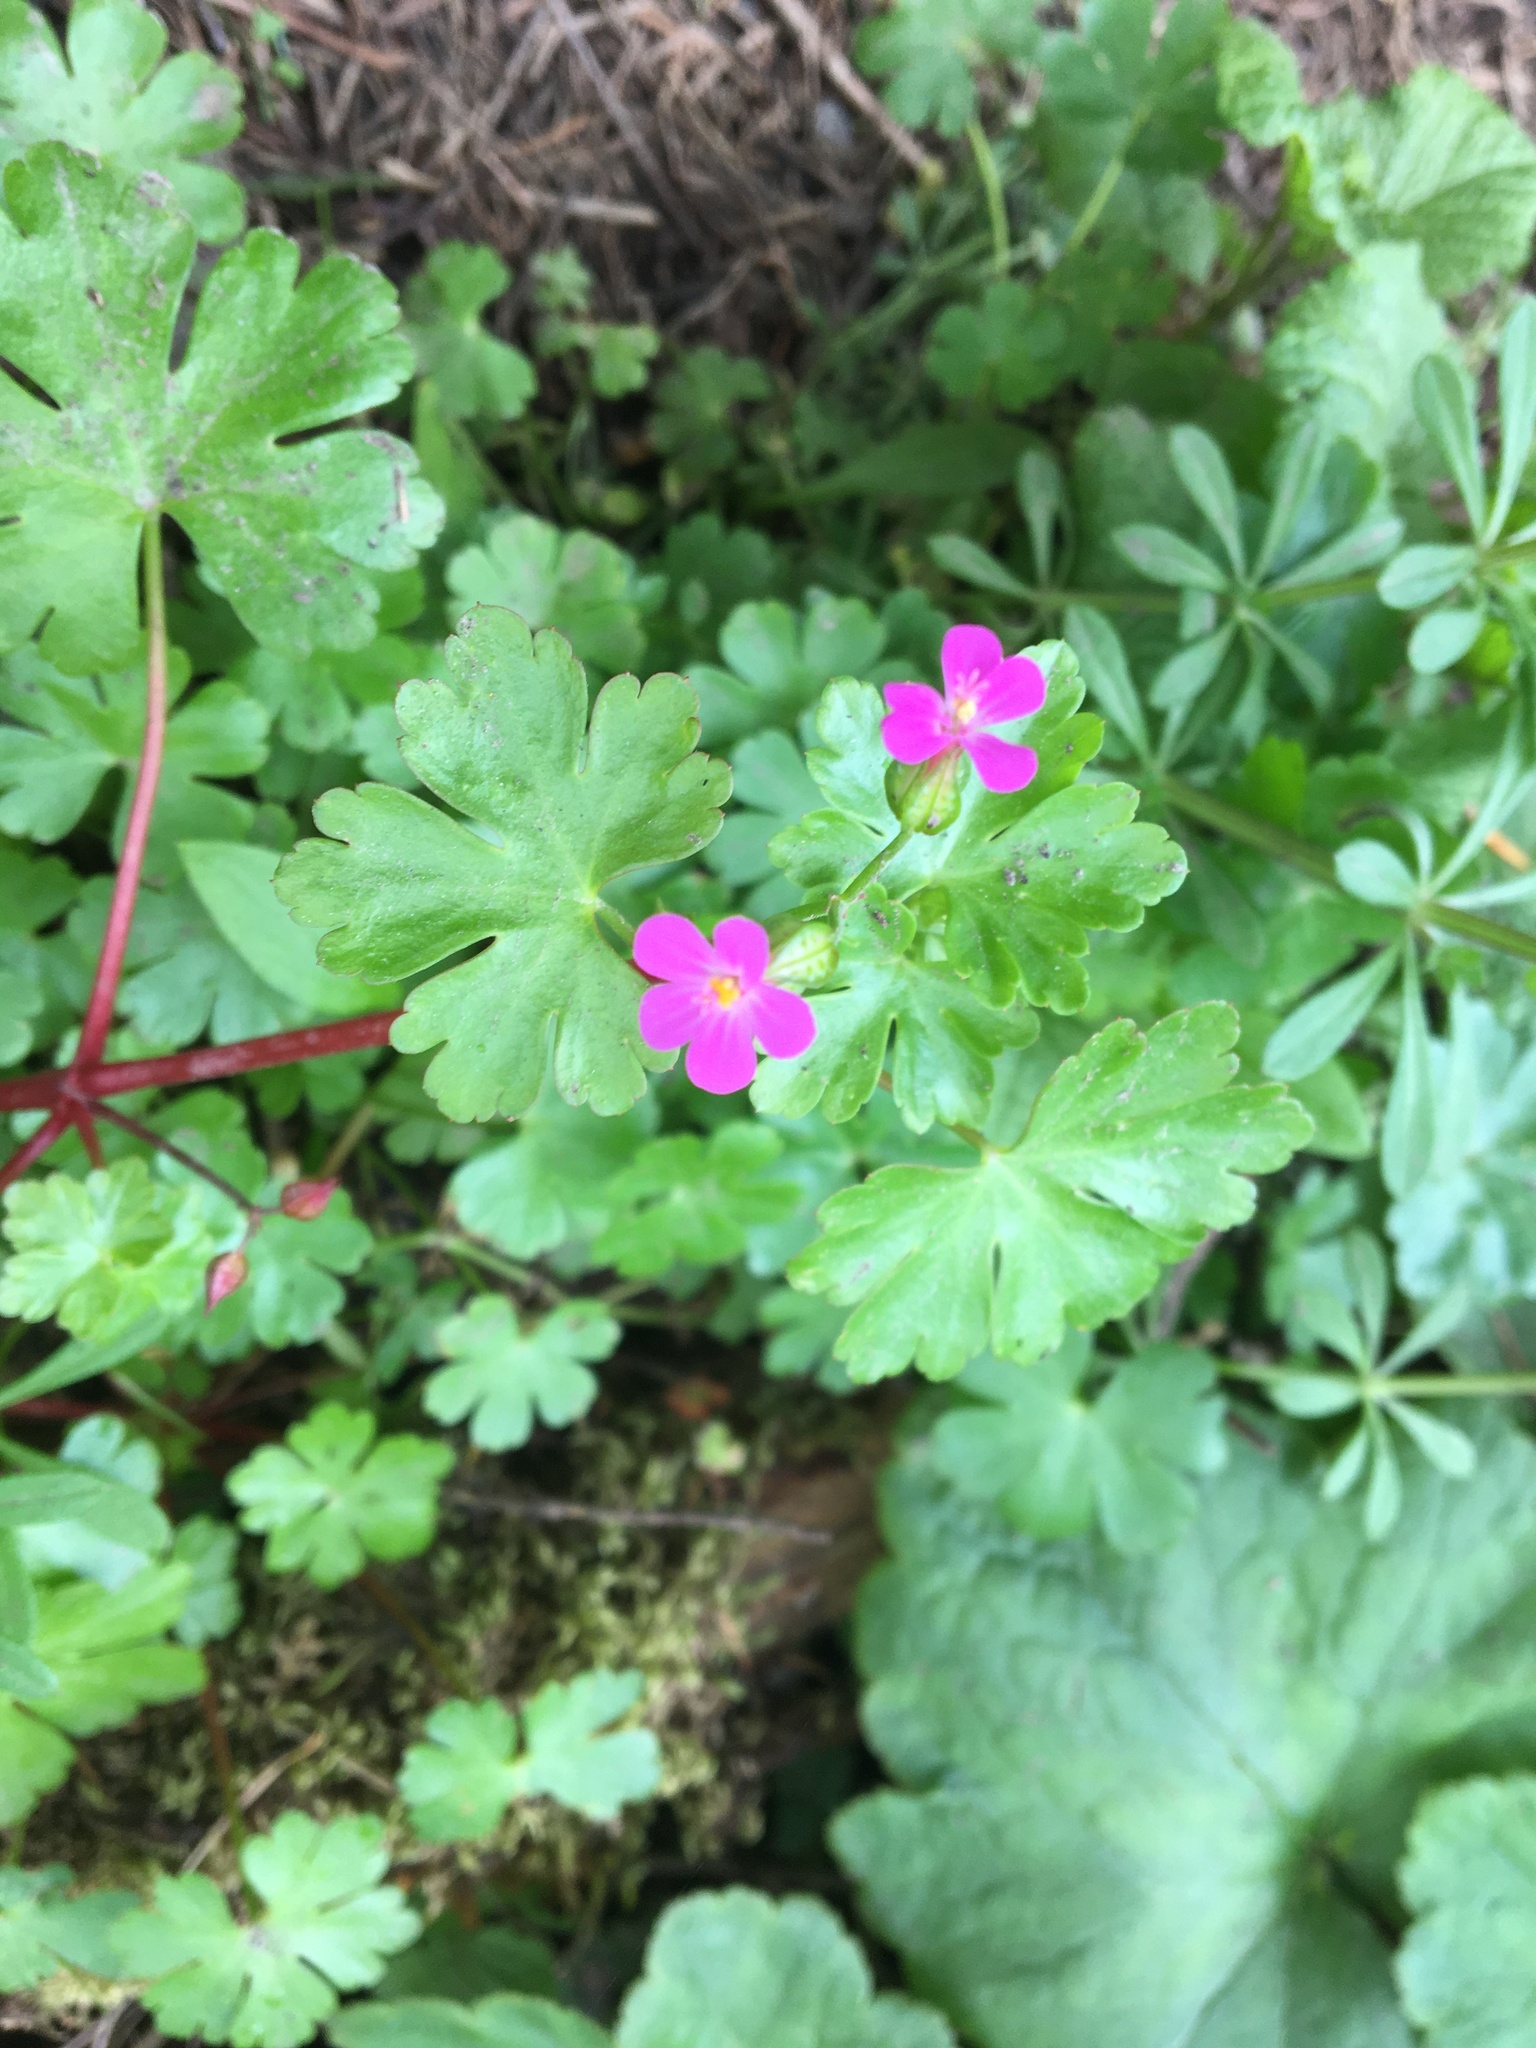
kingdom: Plantae
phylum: Tracheophyta
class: Magnoliopsida
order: Geraniales
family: Geraniaceae
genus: Geranium
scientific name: Geranium lucidum
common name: Shining crane's-bill
